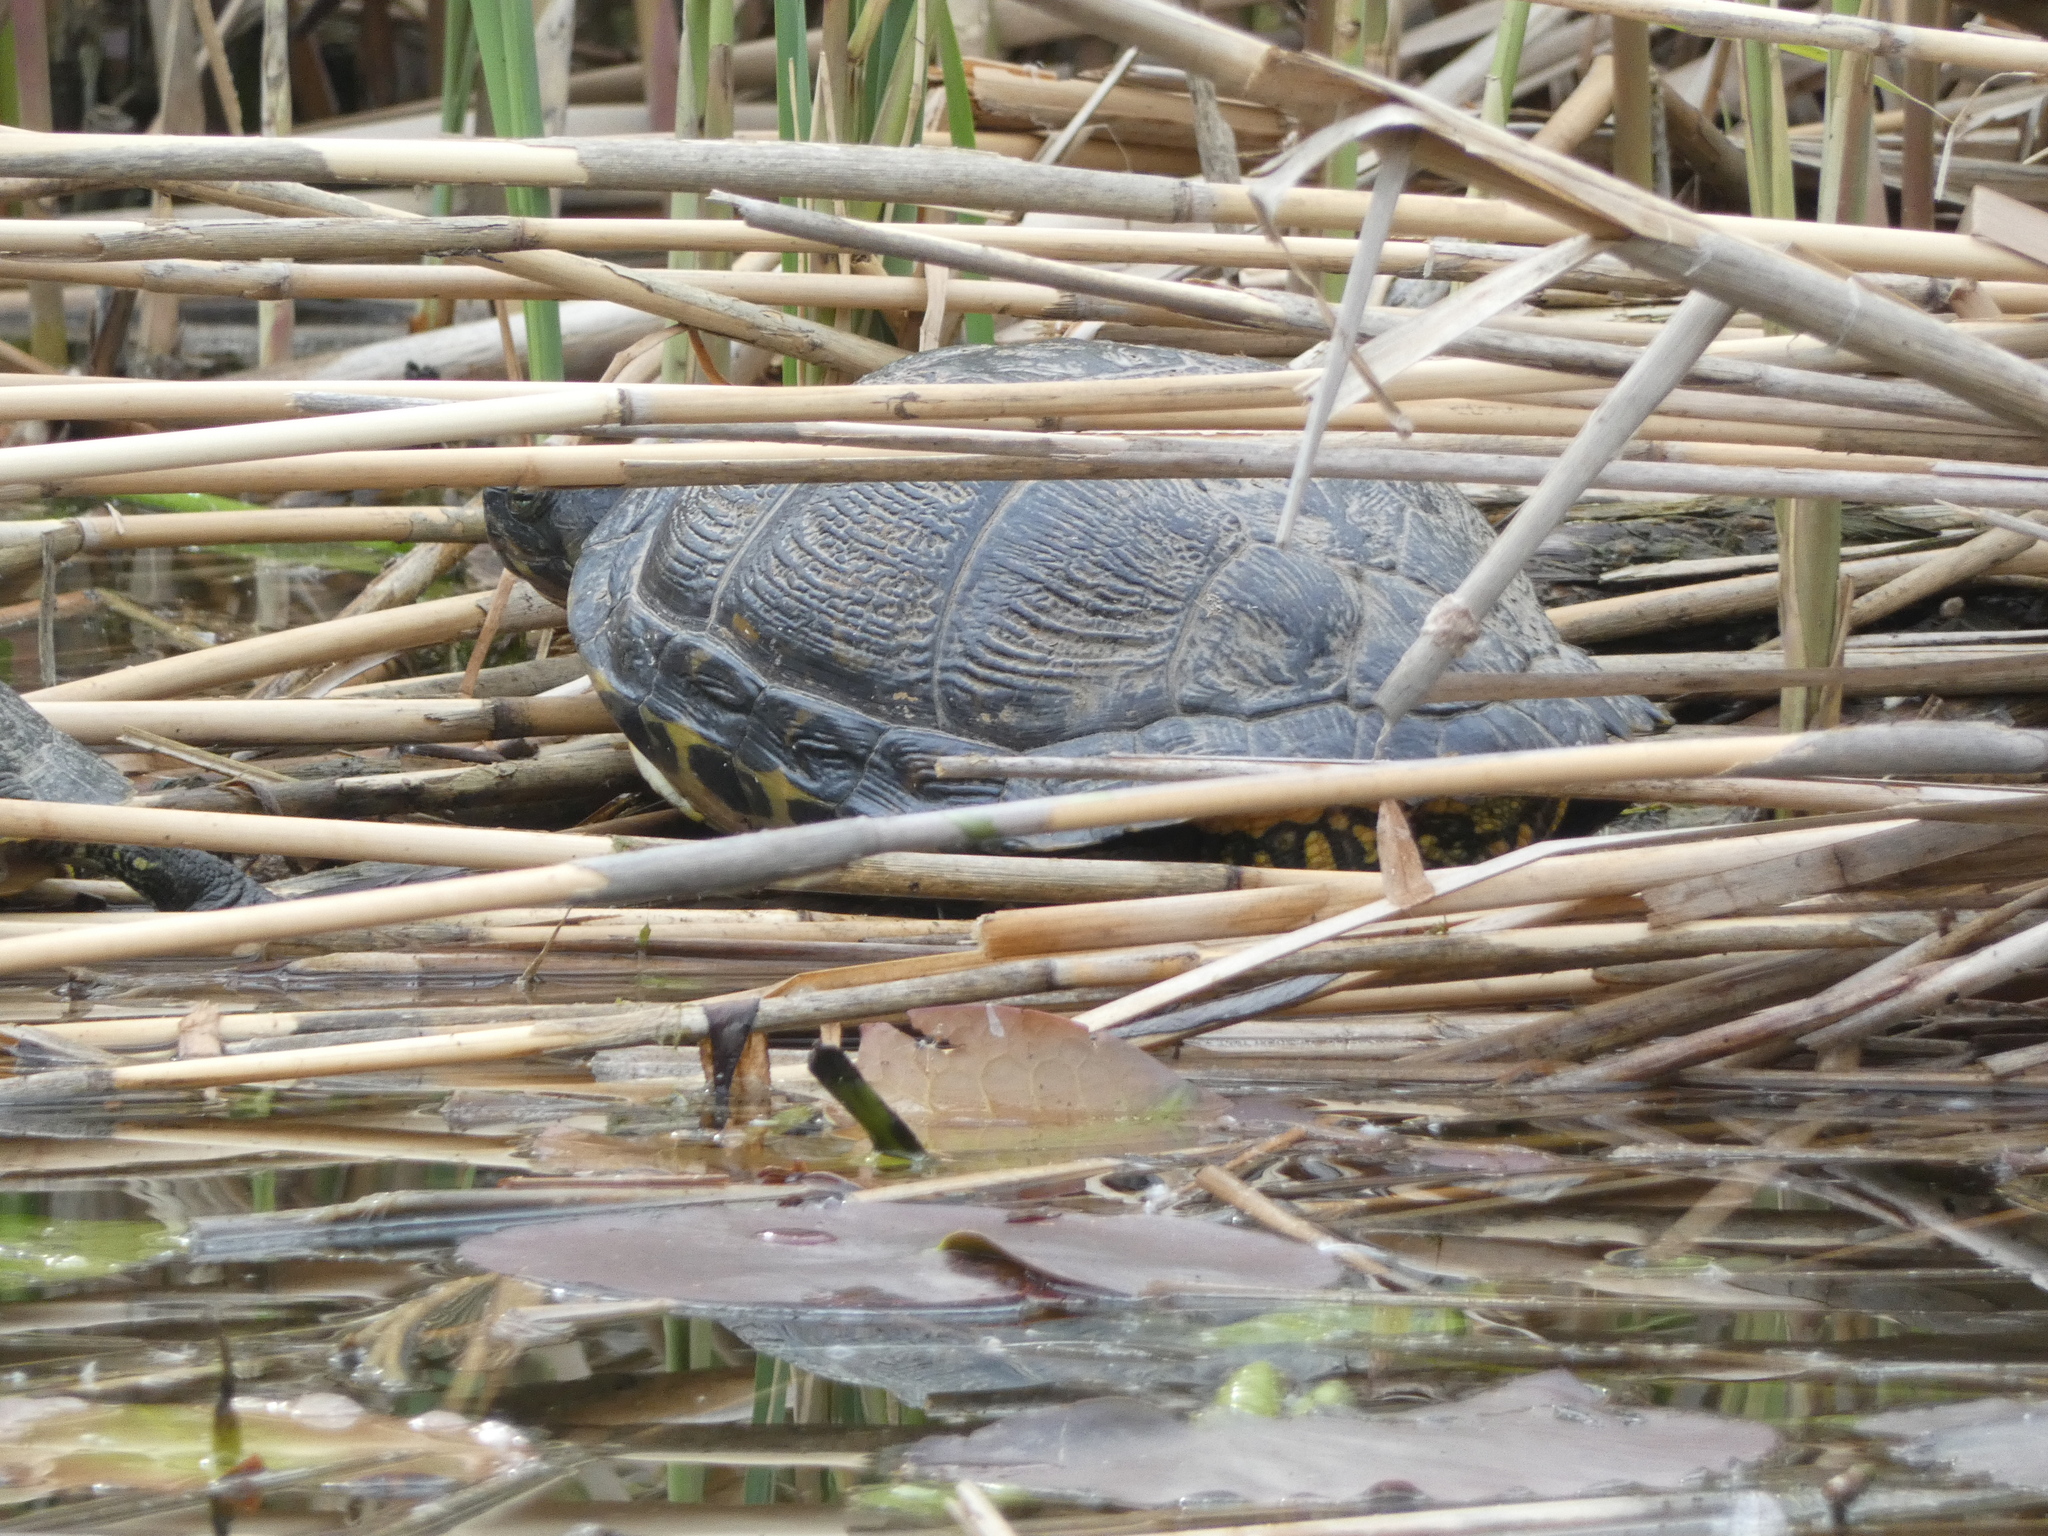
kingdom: Animalia
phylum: Chordata
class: Testudines
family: Emydidae
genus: Trachemys
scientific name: Trachemys scripta
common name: Slider
